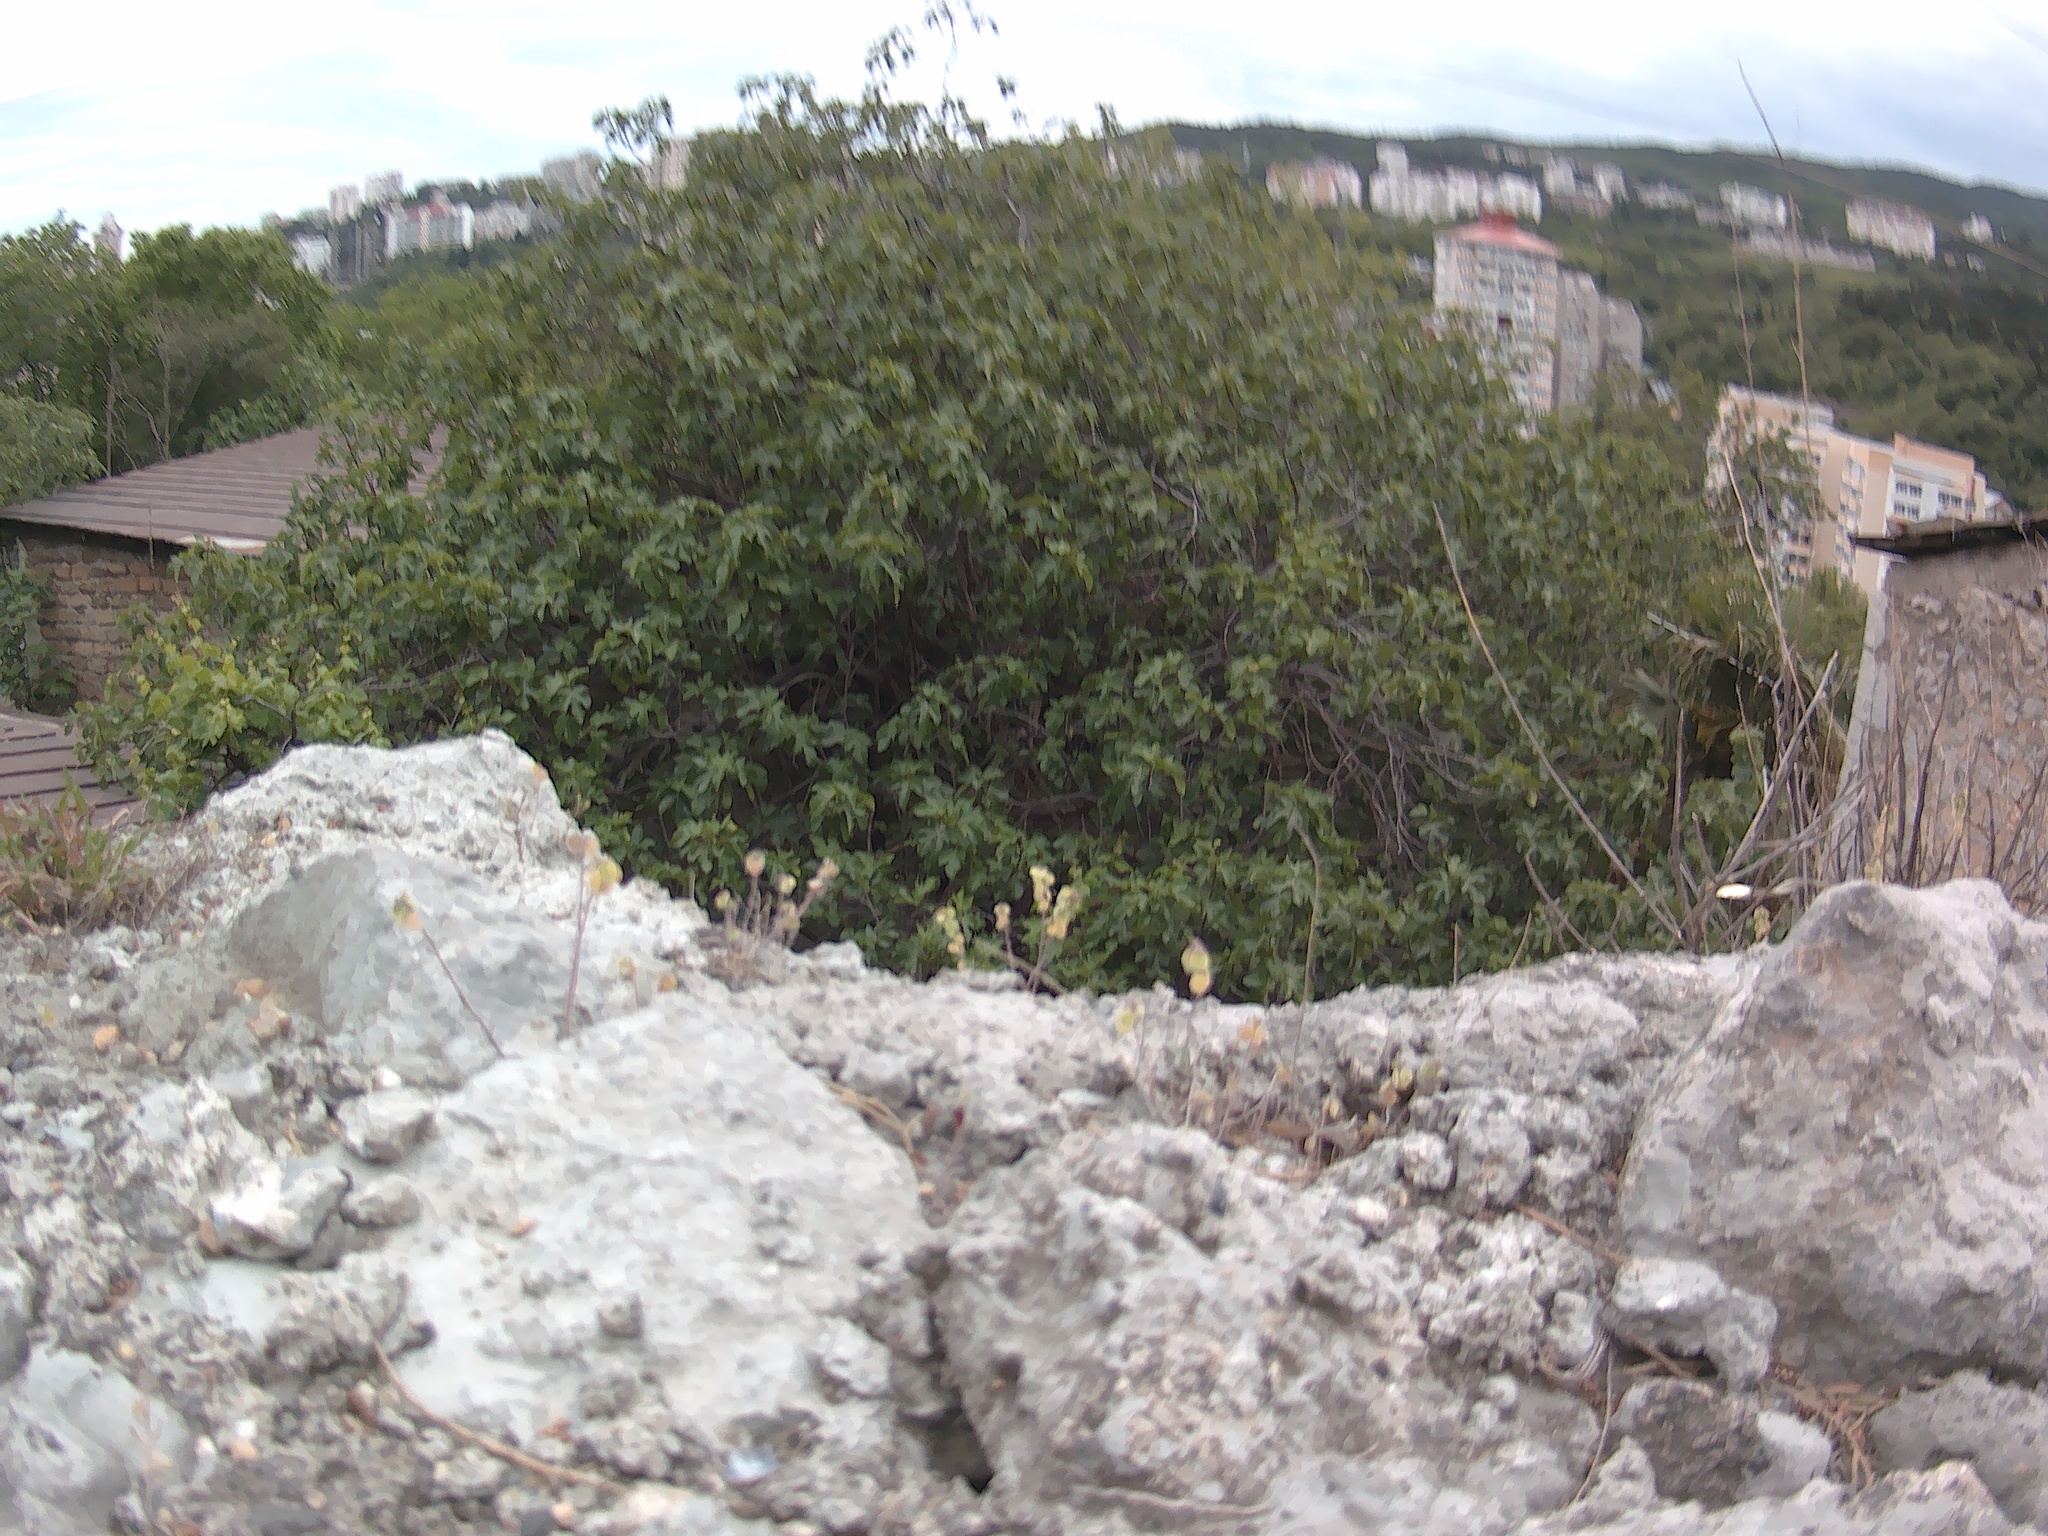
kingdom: Plantae
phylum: Tracheophyta
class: Magnoliopsida
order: Rosales
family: Moraceae
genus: Ficus
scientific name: Ficus carica
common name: Fig
